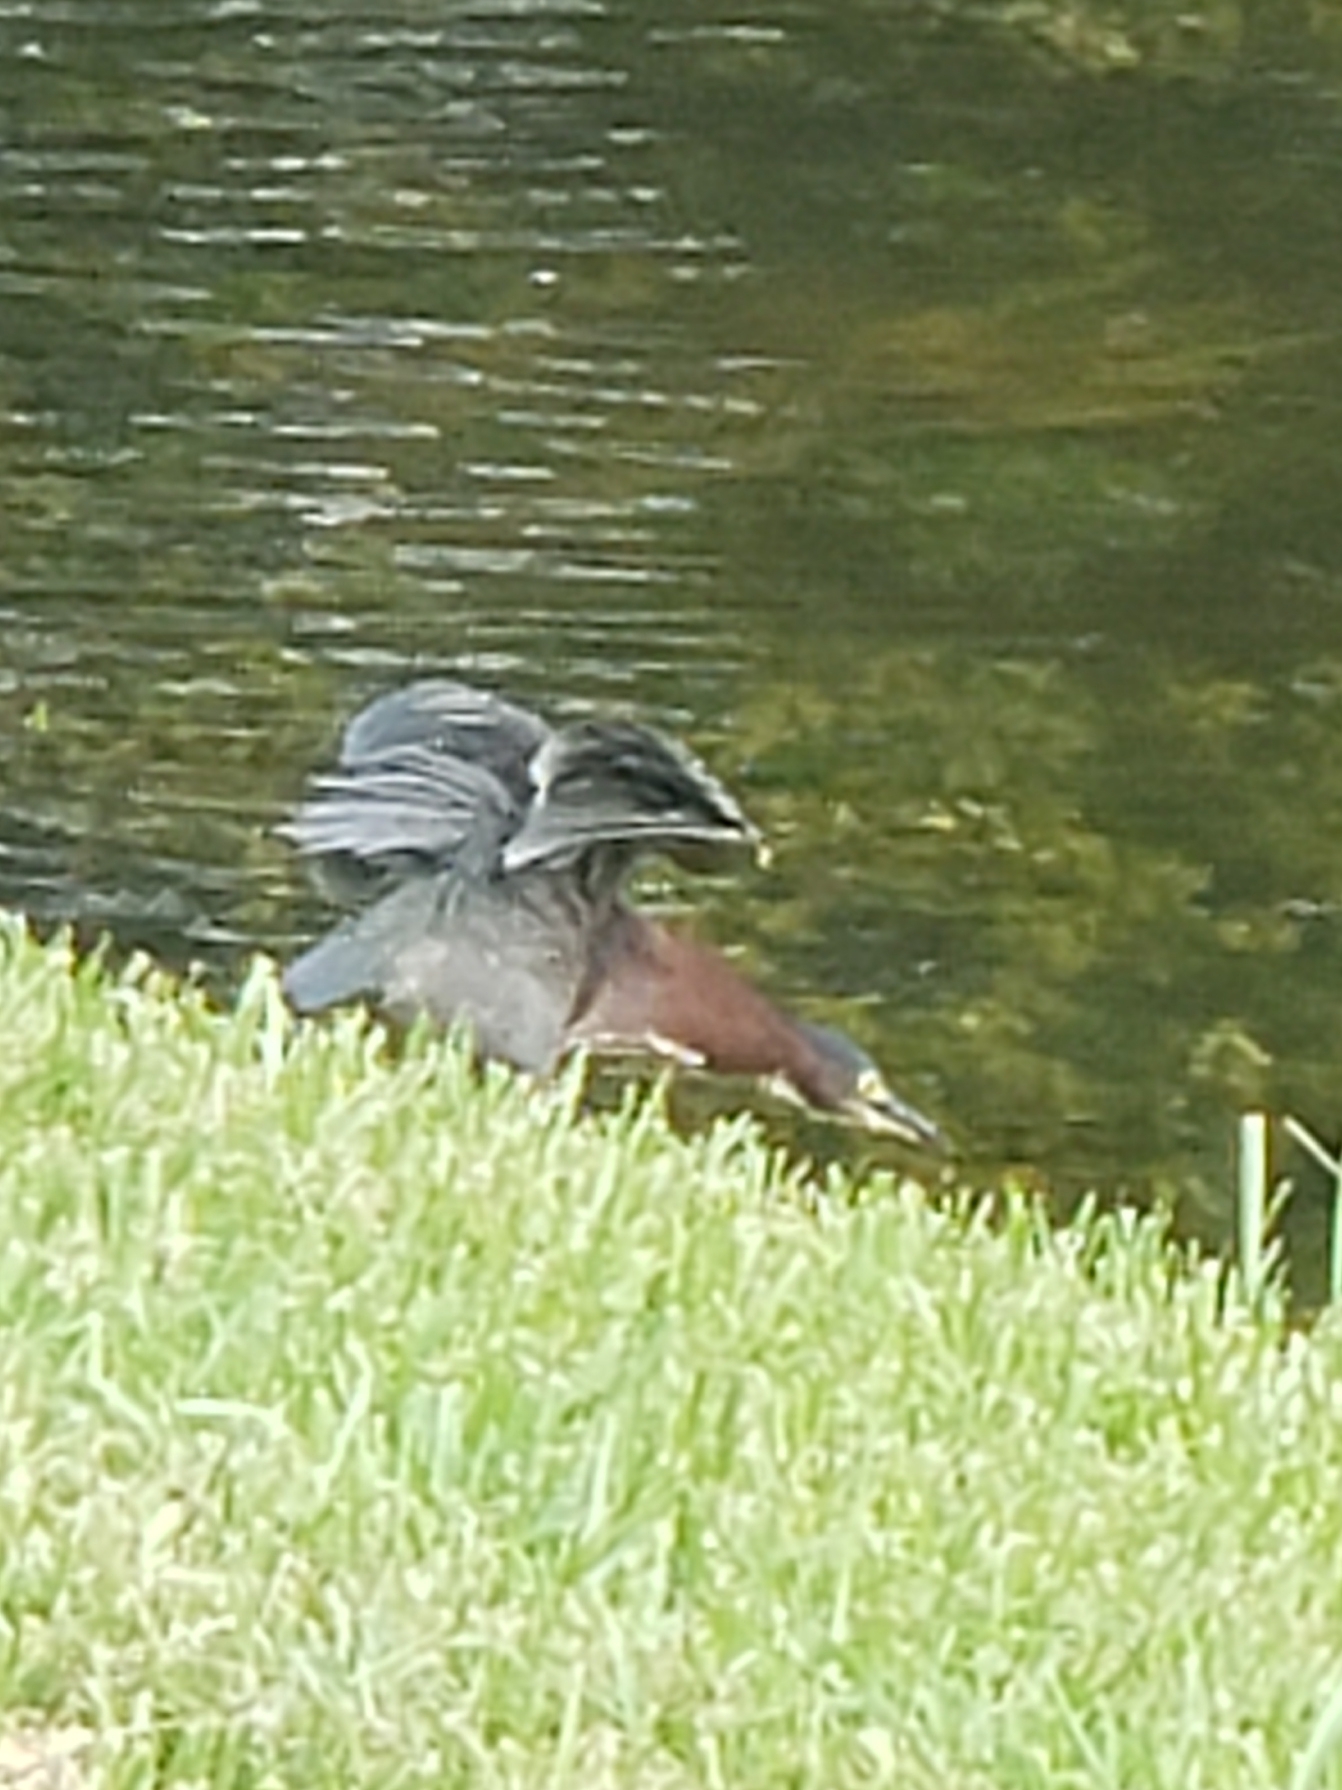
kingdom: Animalia
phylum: Chordata
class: Aves
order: Pelecaniformes
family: Ardeidae
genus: Butorides
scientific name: Butorides virescens
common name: Green heron
